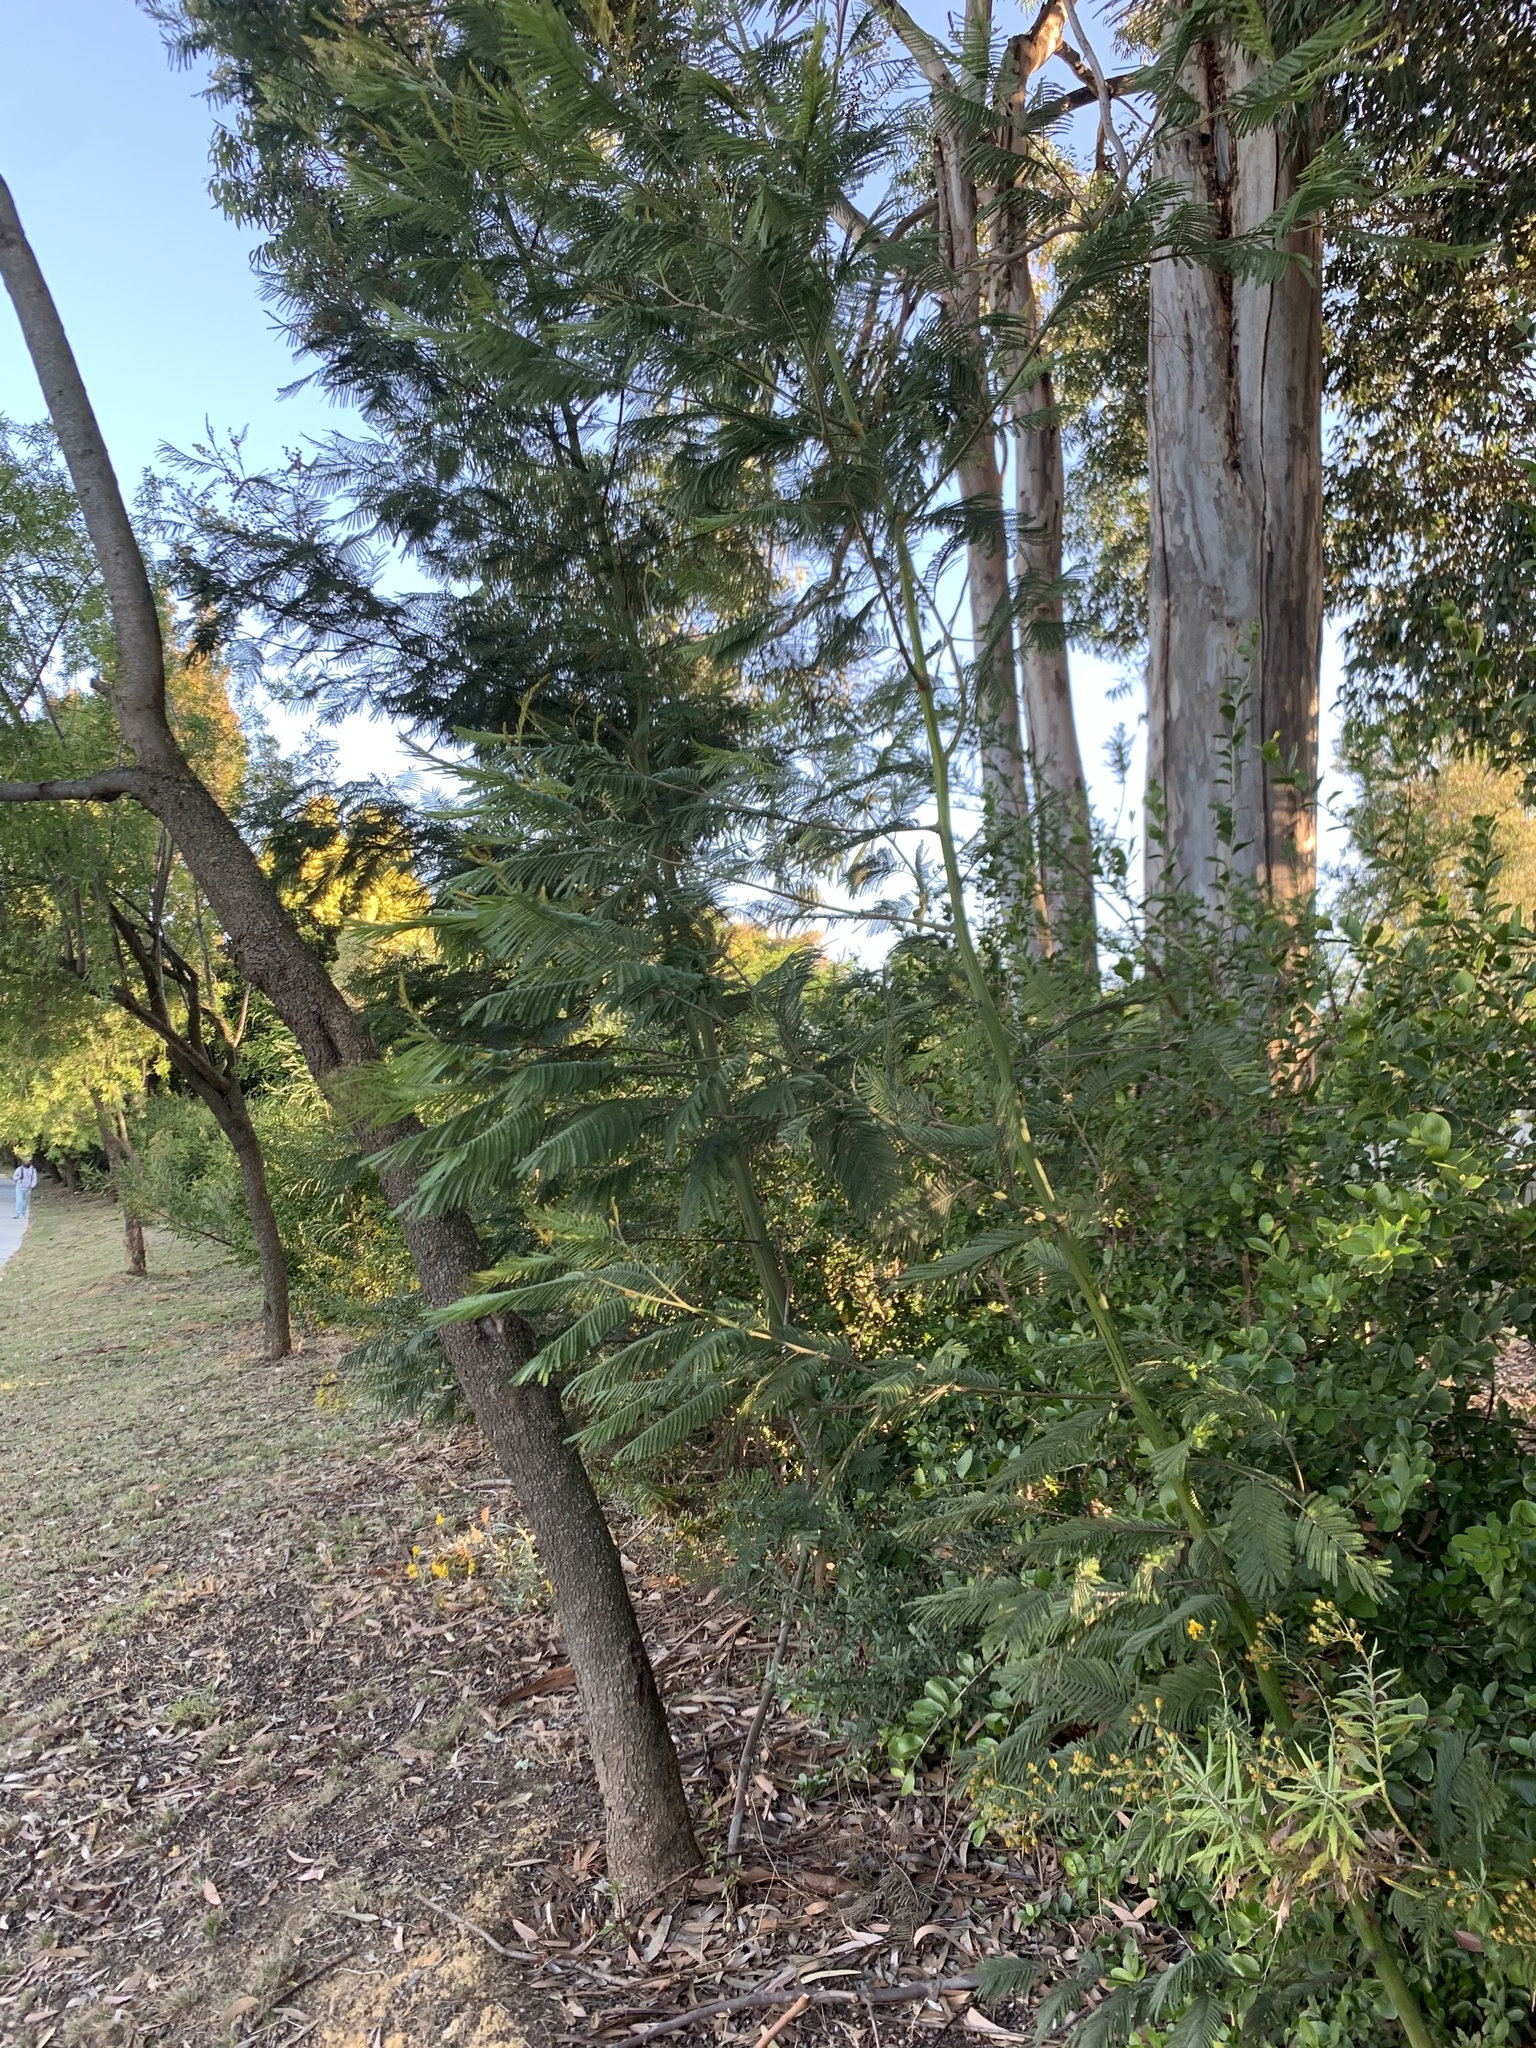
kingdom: Plantae
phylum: Tracheophyta
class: Magnoliopsida
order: Fabales
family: Fabaceae
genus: Acacia
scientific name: Acacia mearnsii
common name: Black wattle
